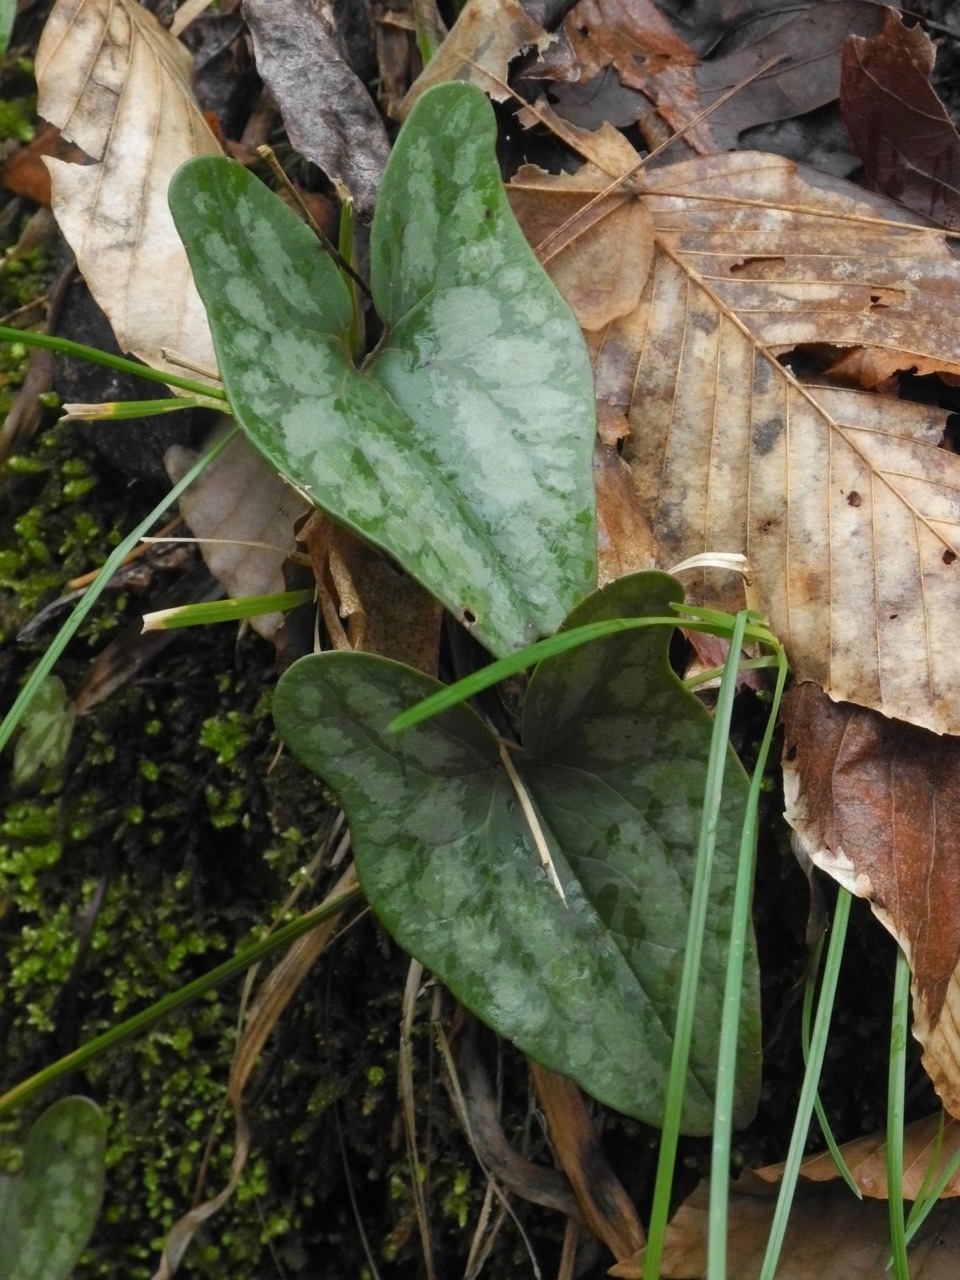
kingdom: Plantae
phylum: Tracheophyta
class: Magnoliopsida
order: Piperales
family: Aristolochiaceae
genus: Hexastylis
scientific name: Hexastylis arifolia
